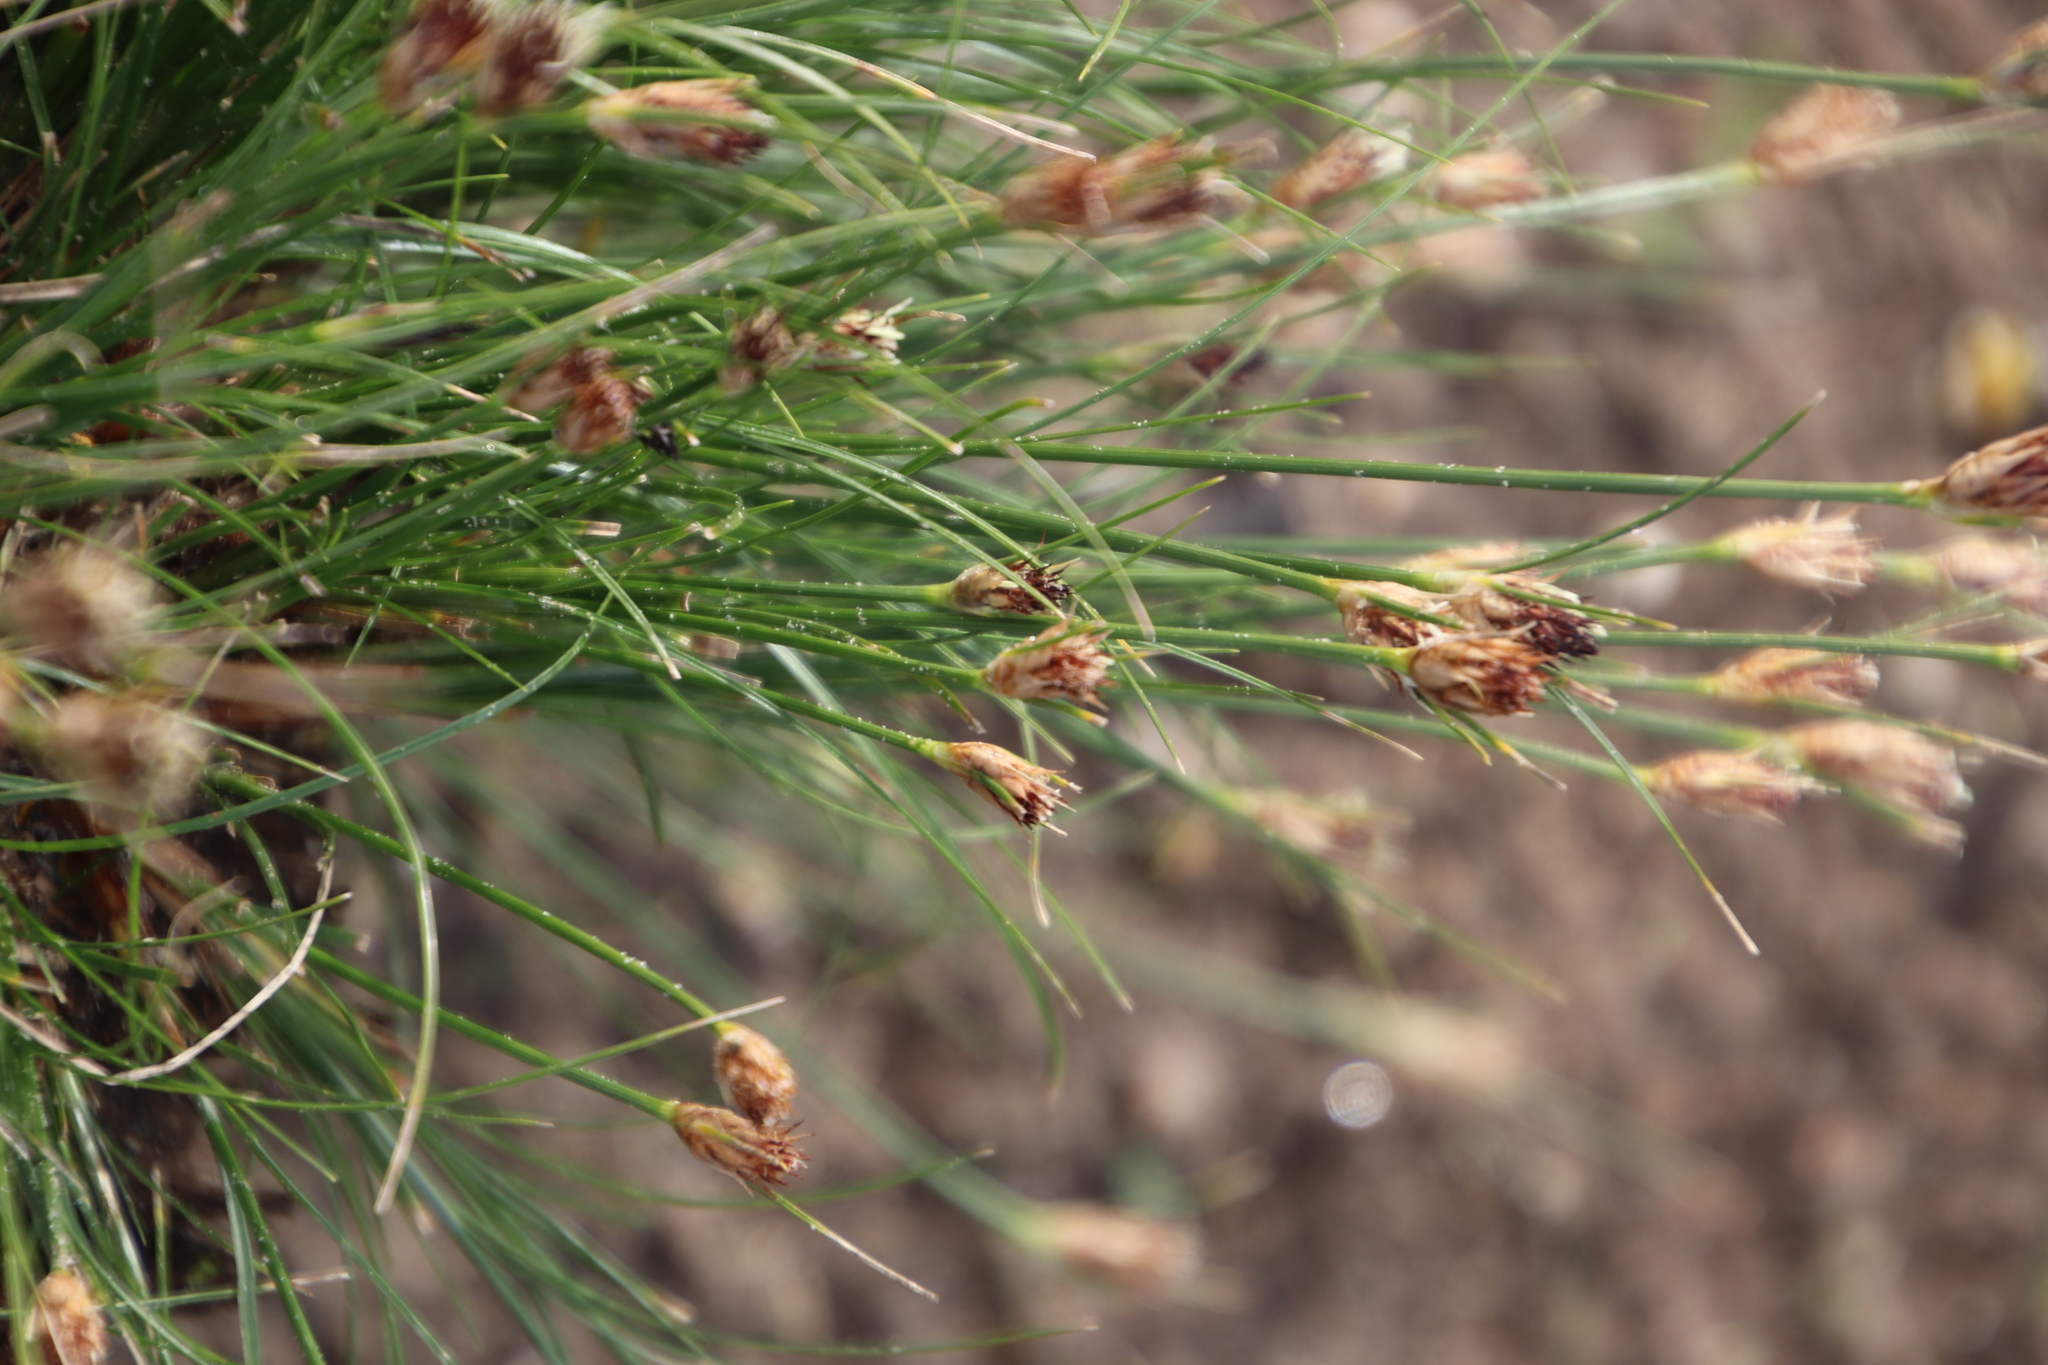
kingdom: Plantae
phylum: Tracheophyta
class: Liliopsida
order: Poales
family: Cyperaceae
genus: Ficinia
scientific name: Ficinia nigrescens
